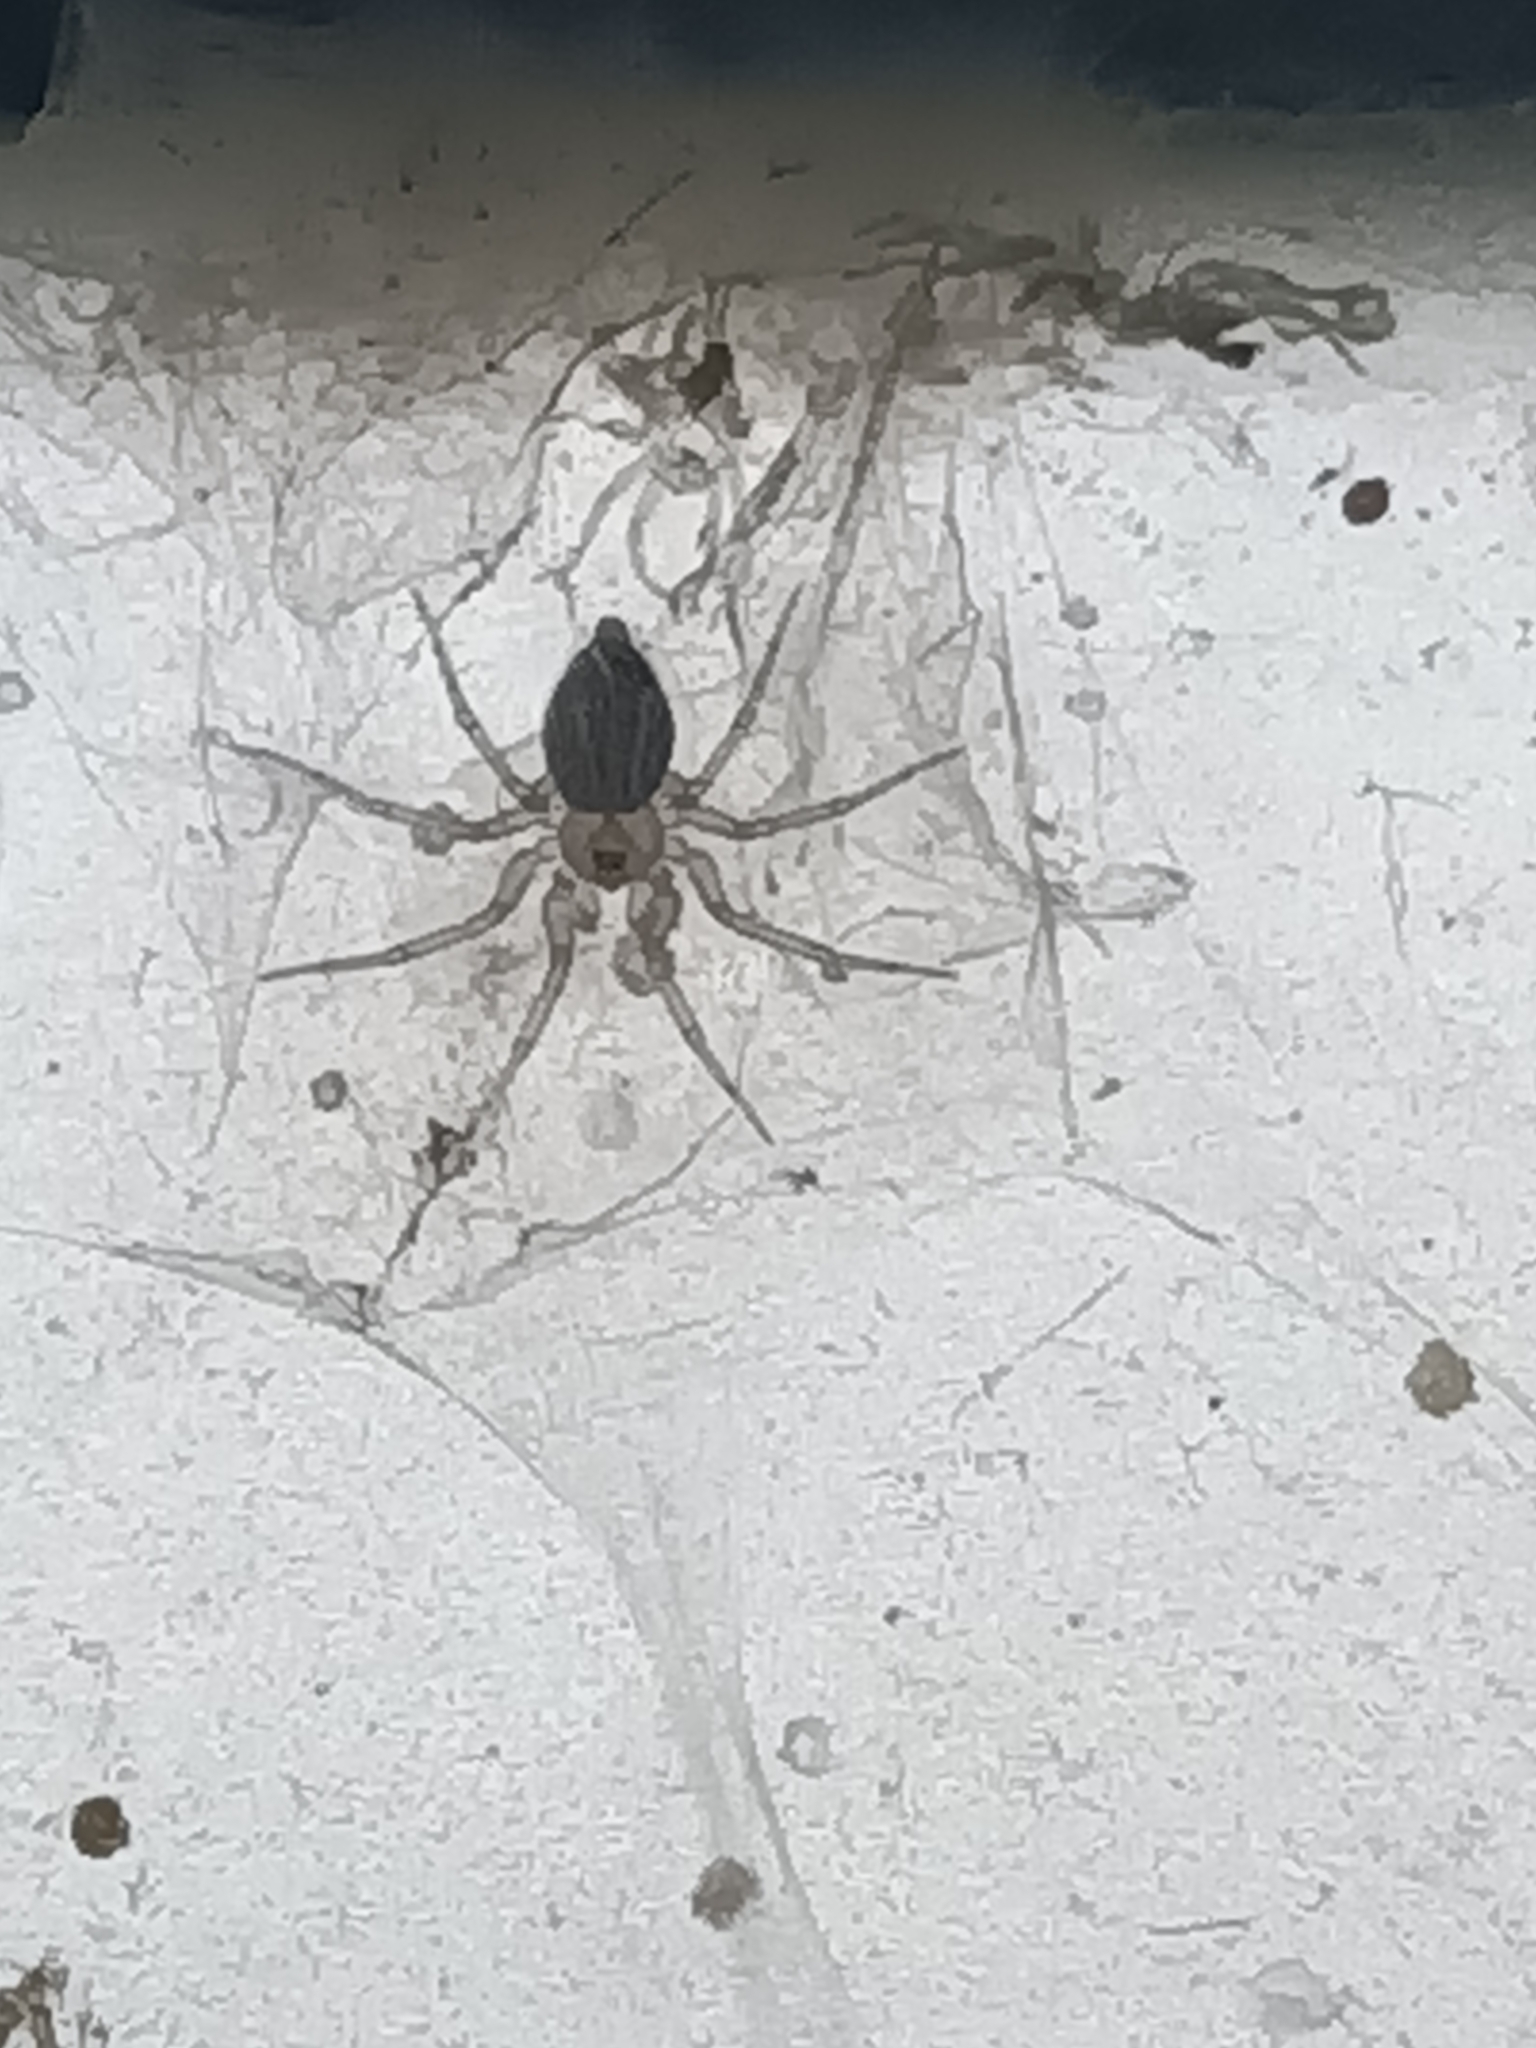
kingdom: Animalia
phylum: Arthropoda
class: Arachnida
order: Araneae
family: Oecobiidae
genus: Oecobius
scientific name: Oecobius
